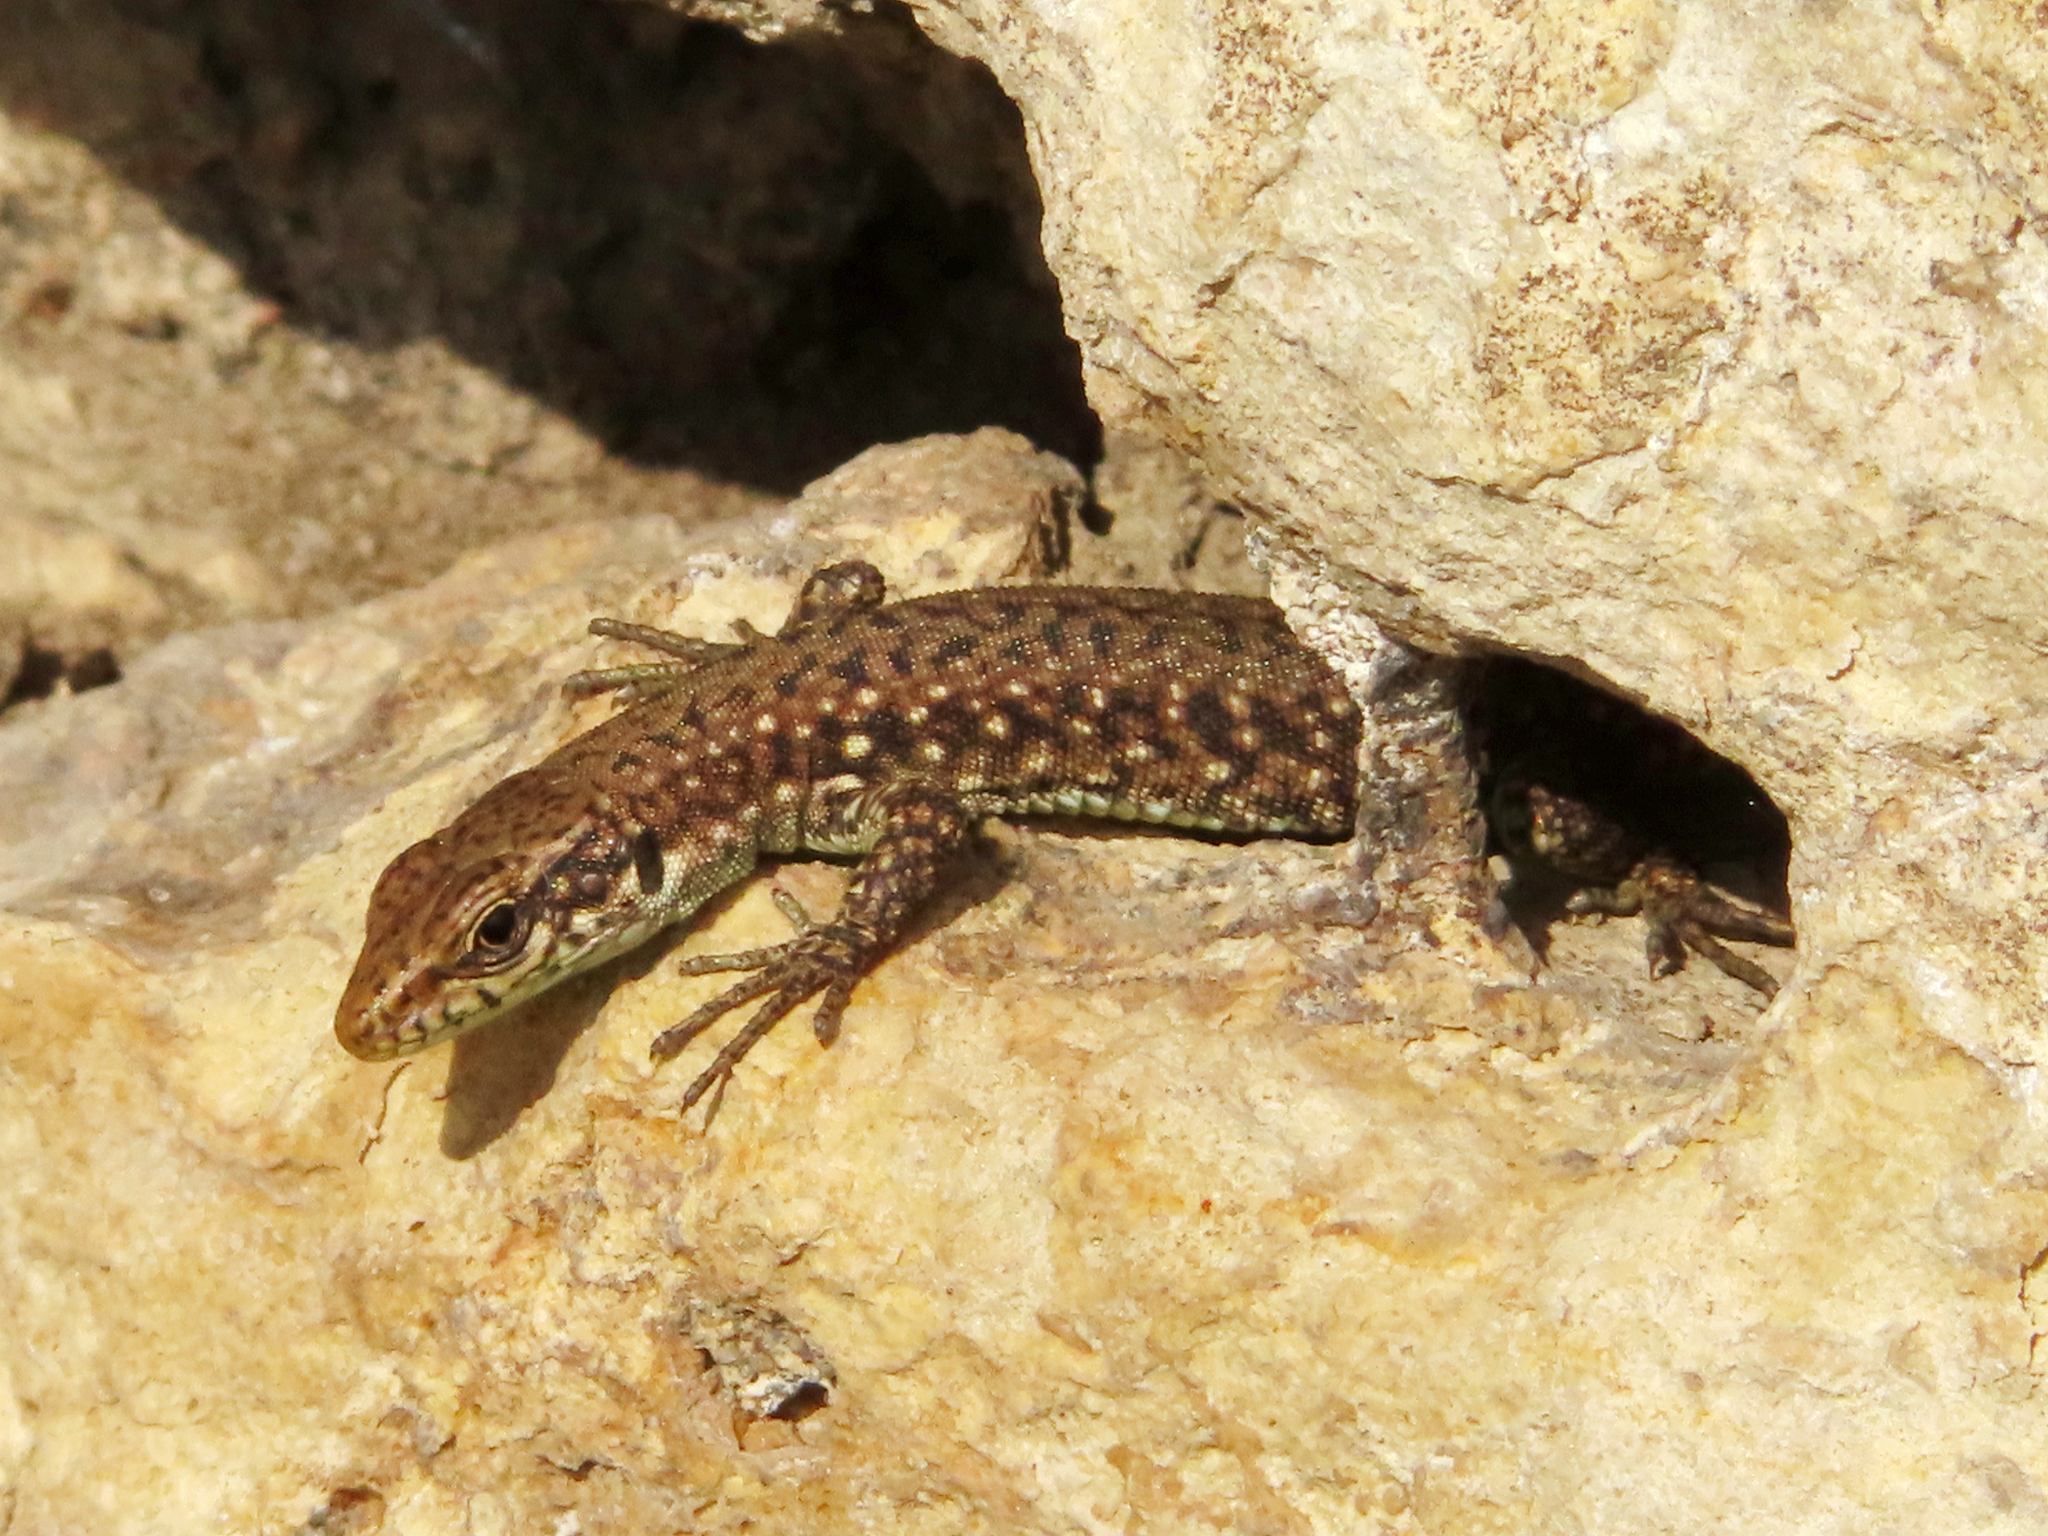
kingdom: Animalia
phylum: Chordata
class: Squamata
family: Lacertidae
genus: Darevskia
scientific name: Darevskia rudis
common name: Spiny-tailed lizard
